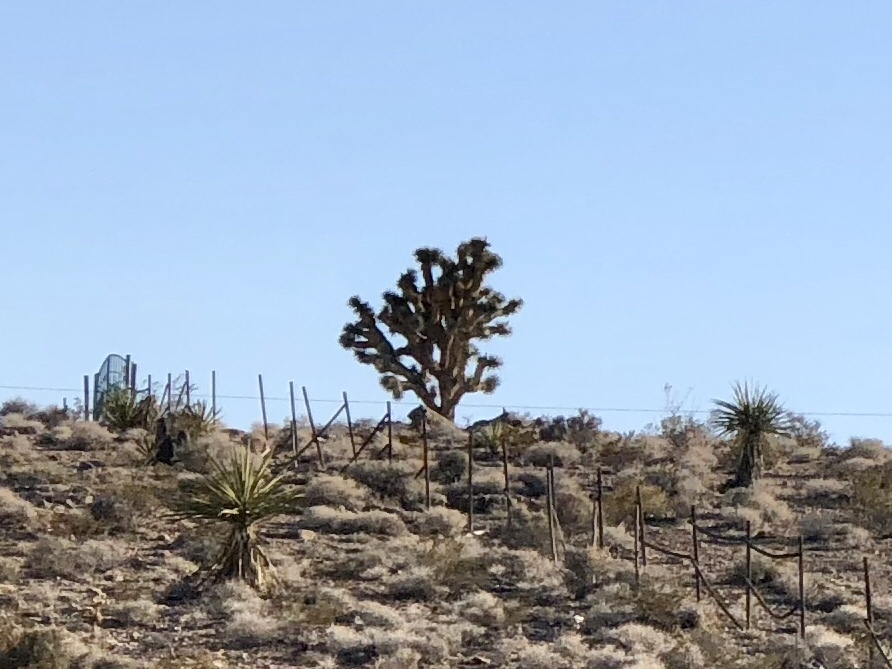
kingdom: Plantae
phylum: Tracheophyta
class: Liliopsida
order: Asparagales
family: Asparagaceae
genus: Yucca
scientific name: Yucca schidigera
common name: Mojave yucca
